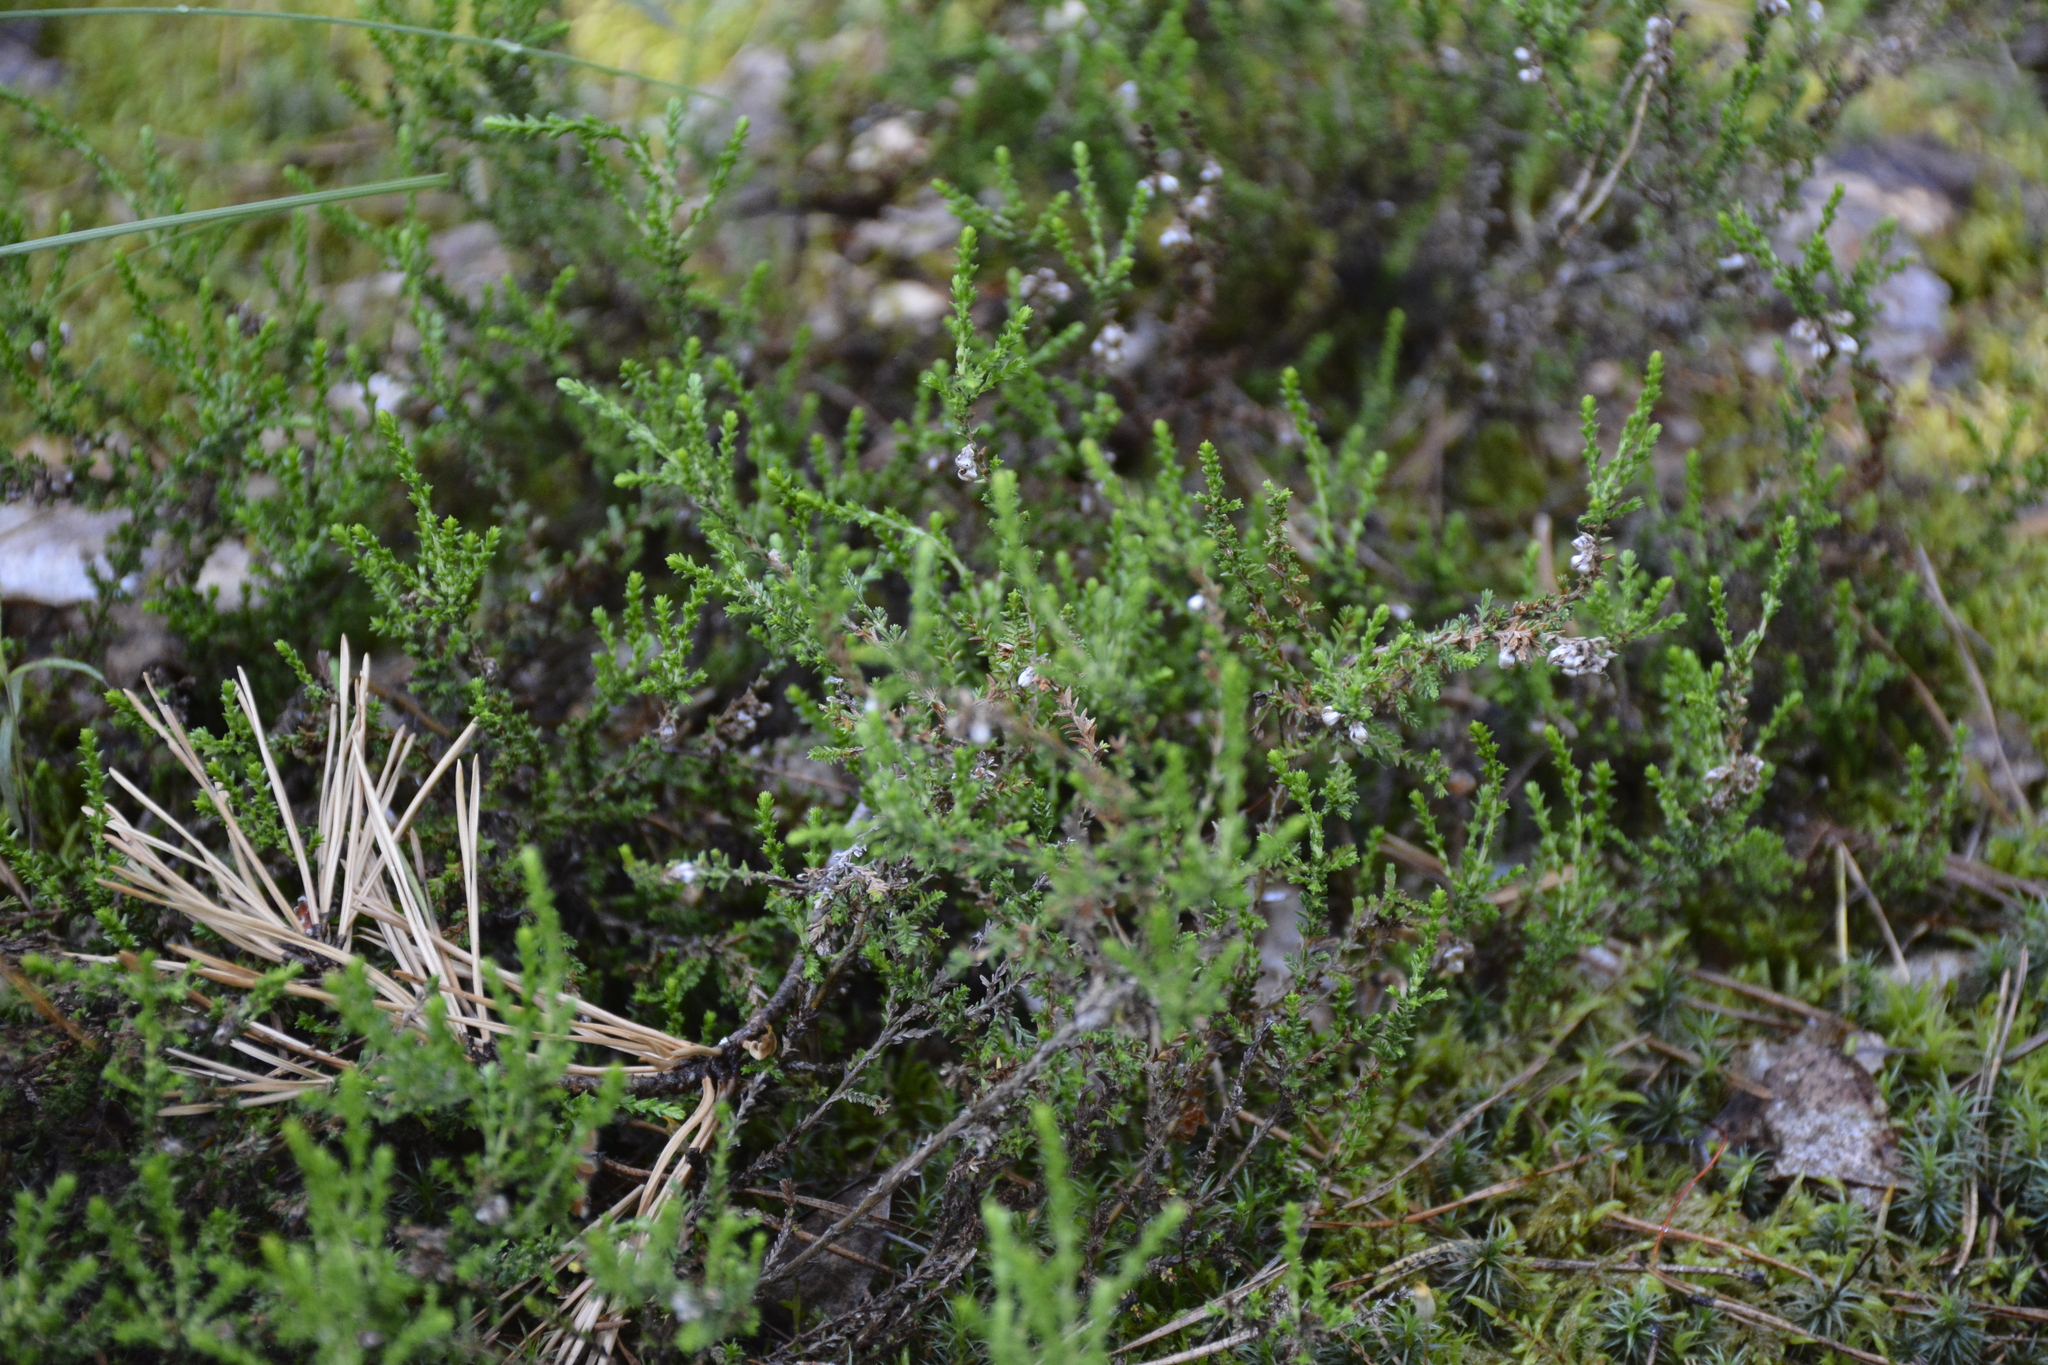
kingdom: Plantae
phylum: Tracheophyta
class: Magnoliopsida
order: Ericales
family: Ericaceae
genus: Calluna
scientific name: Calluna vulgaris
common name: Heather
